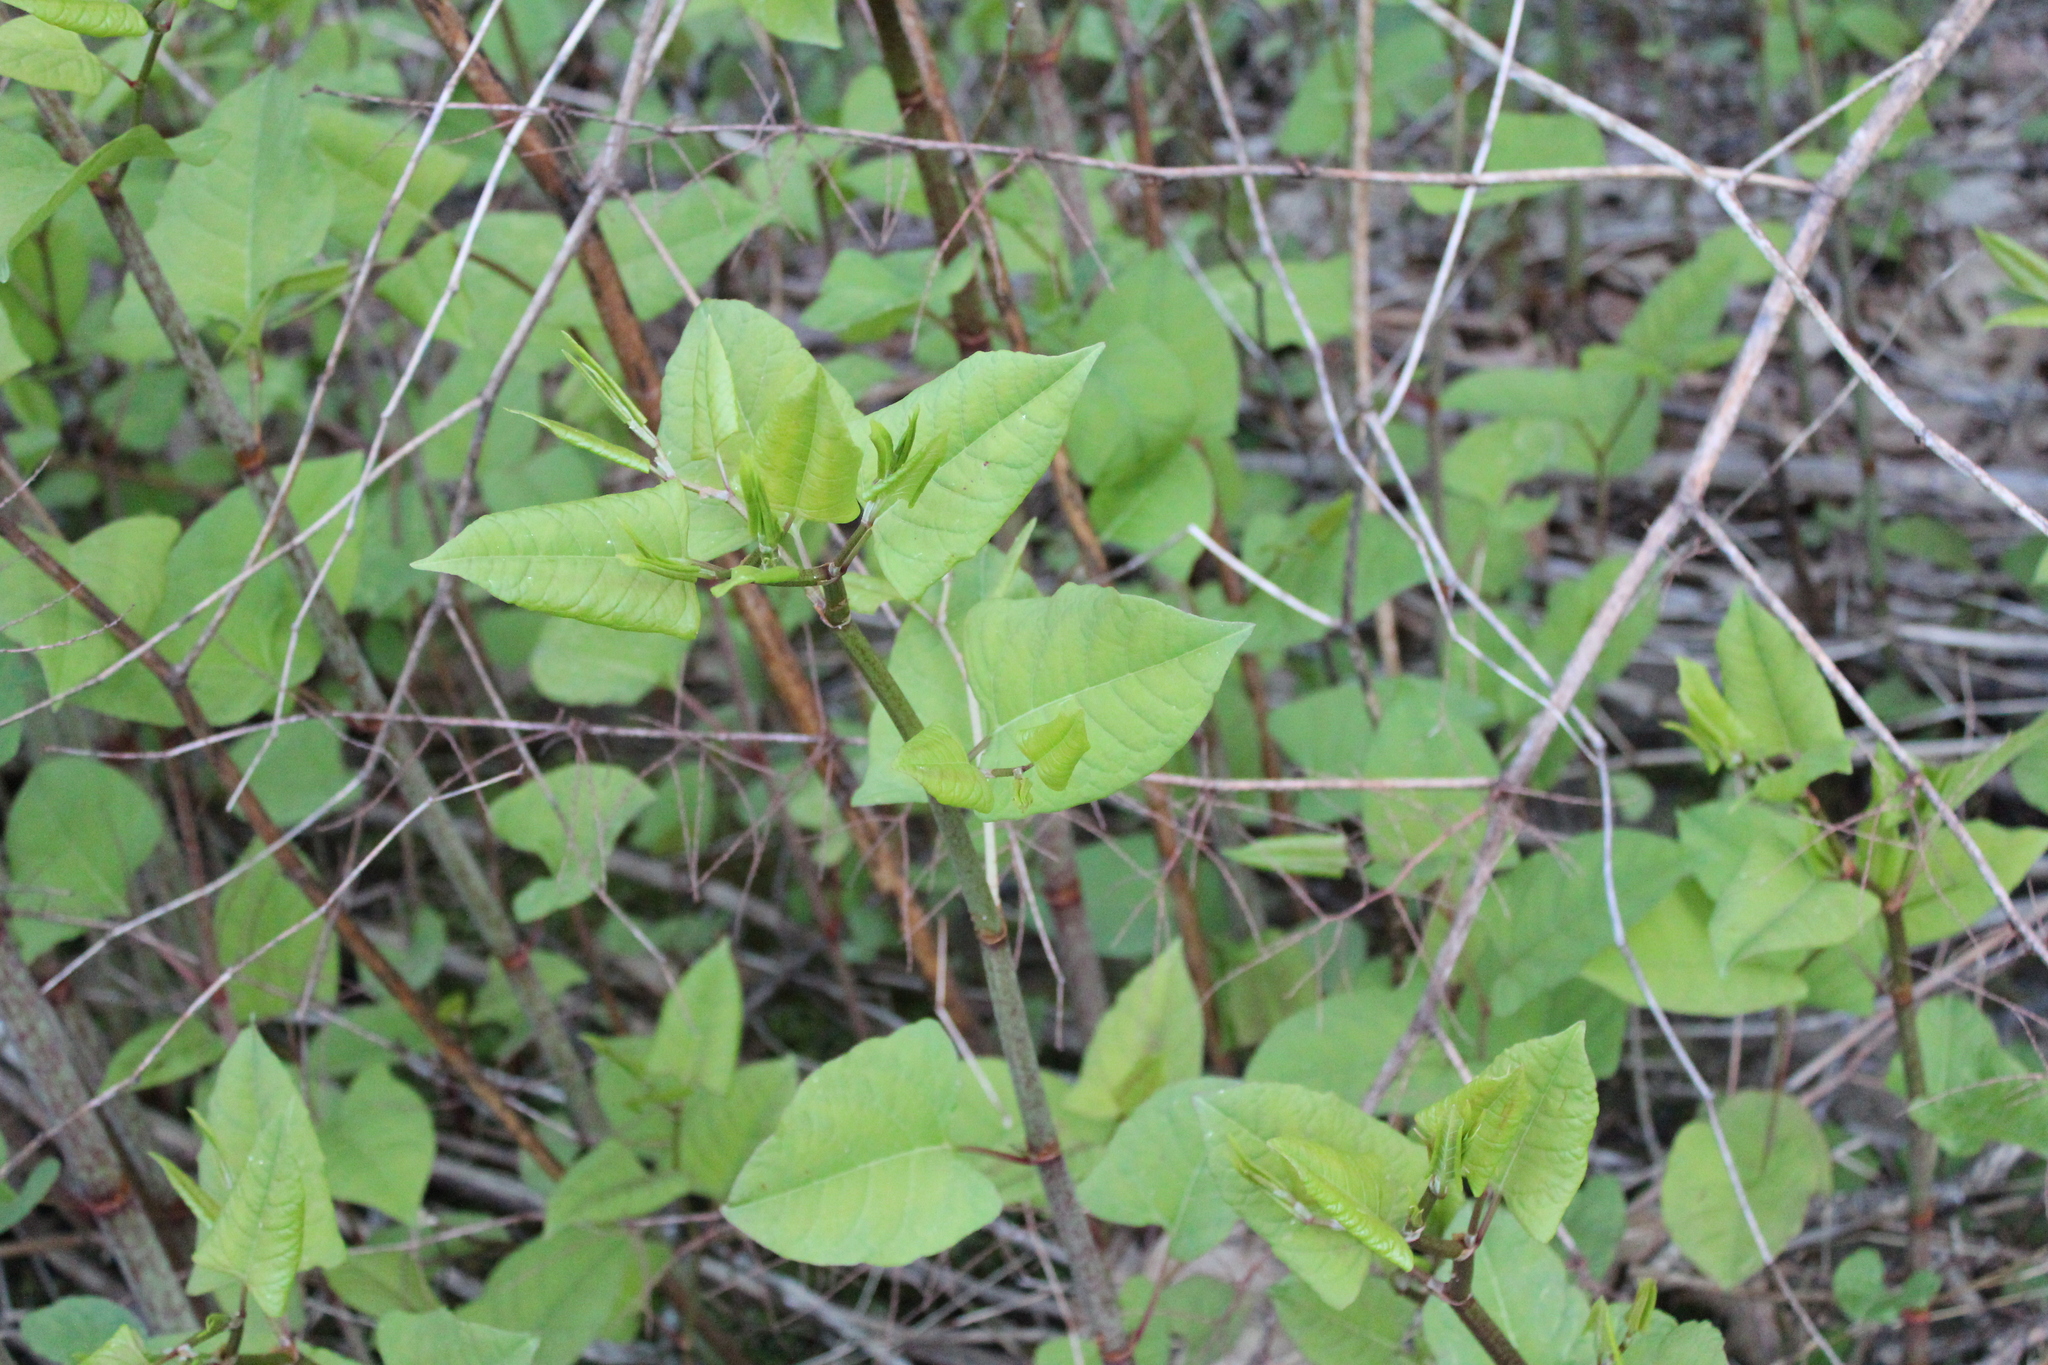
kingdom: Plantae
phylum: Tracheophyta
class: Magnoliopsida
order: Caryophyllales
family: Polygonaceae
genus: Reynoutria
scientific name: Reynoutria japonica
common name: Japanese knotweed
